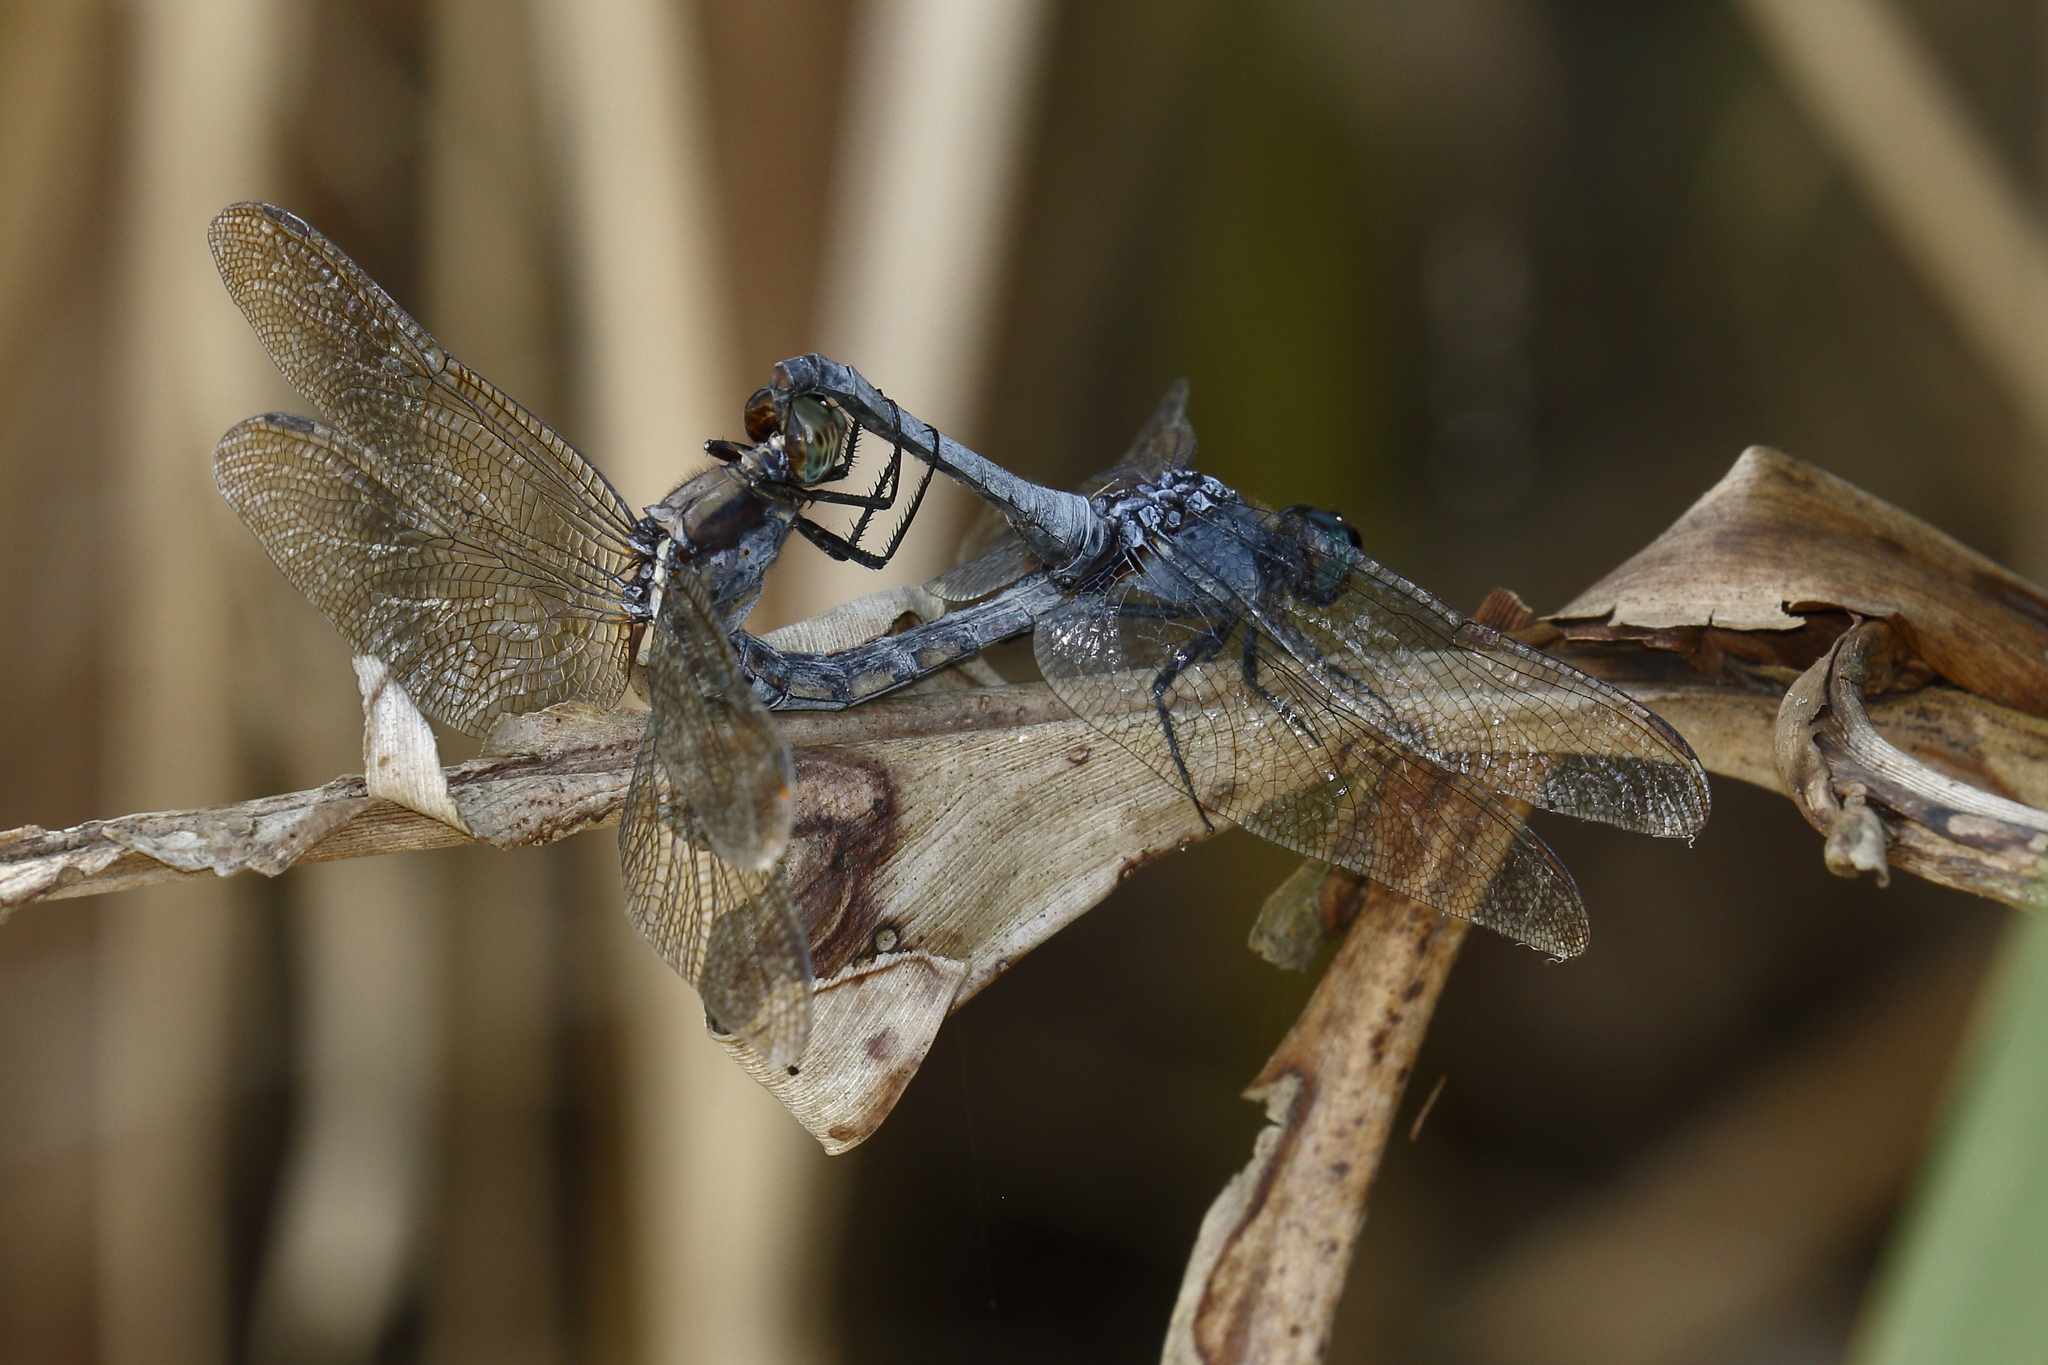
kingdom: Animalia
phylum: Arthropoda
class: Insecta
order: Odonata
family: Libellulidae
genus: Orthetrum
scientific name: Orthetrum glaucum
